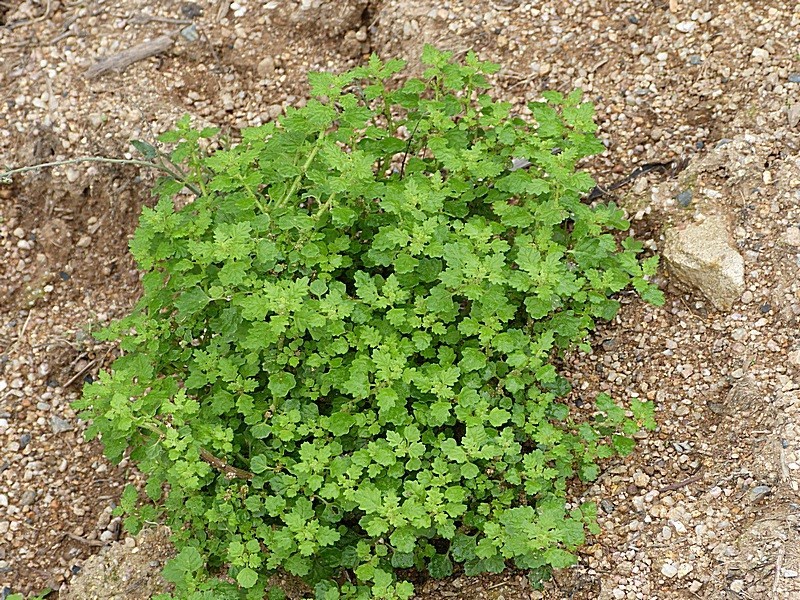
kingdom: Plantae
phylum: Tracheophyta
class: Magnoliopsida
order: Caryophyllales
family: Amaranthaceae
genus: Dysphania
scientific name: Dysphania pumilio
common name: Clammy goosefoot
